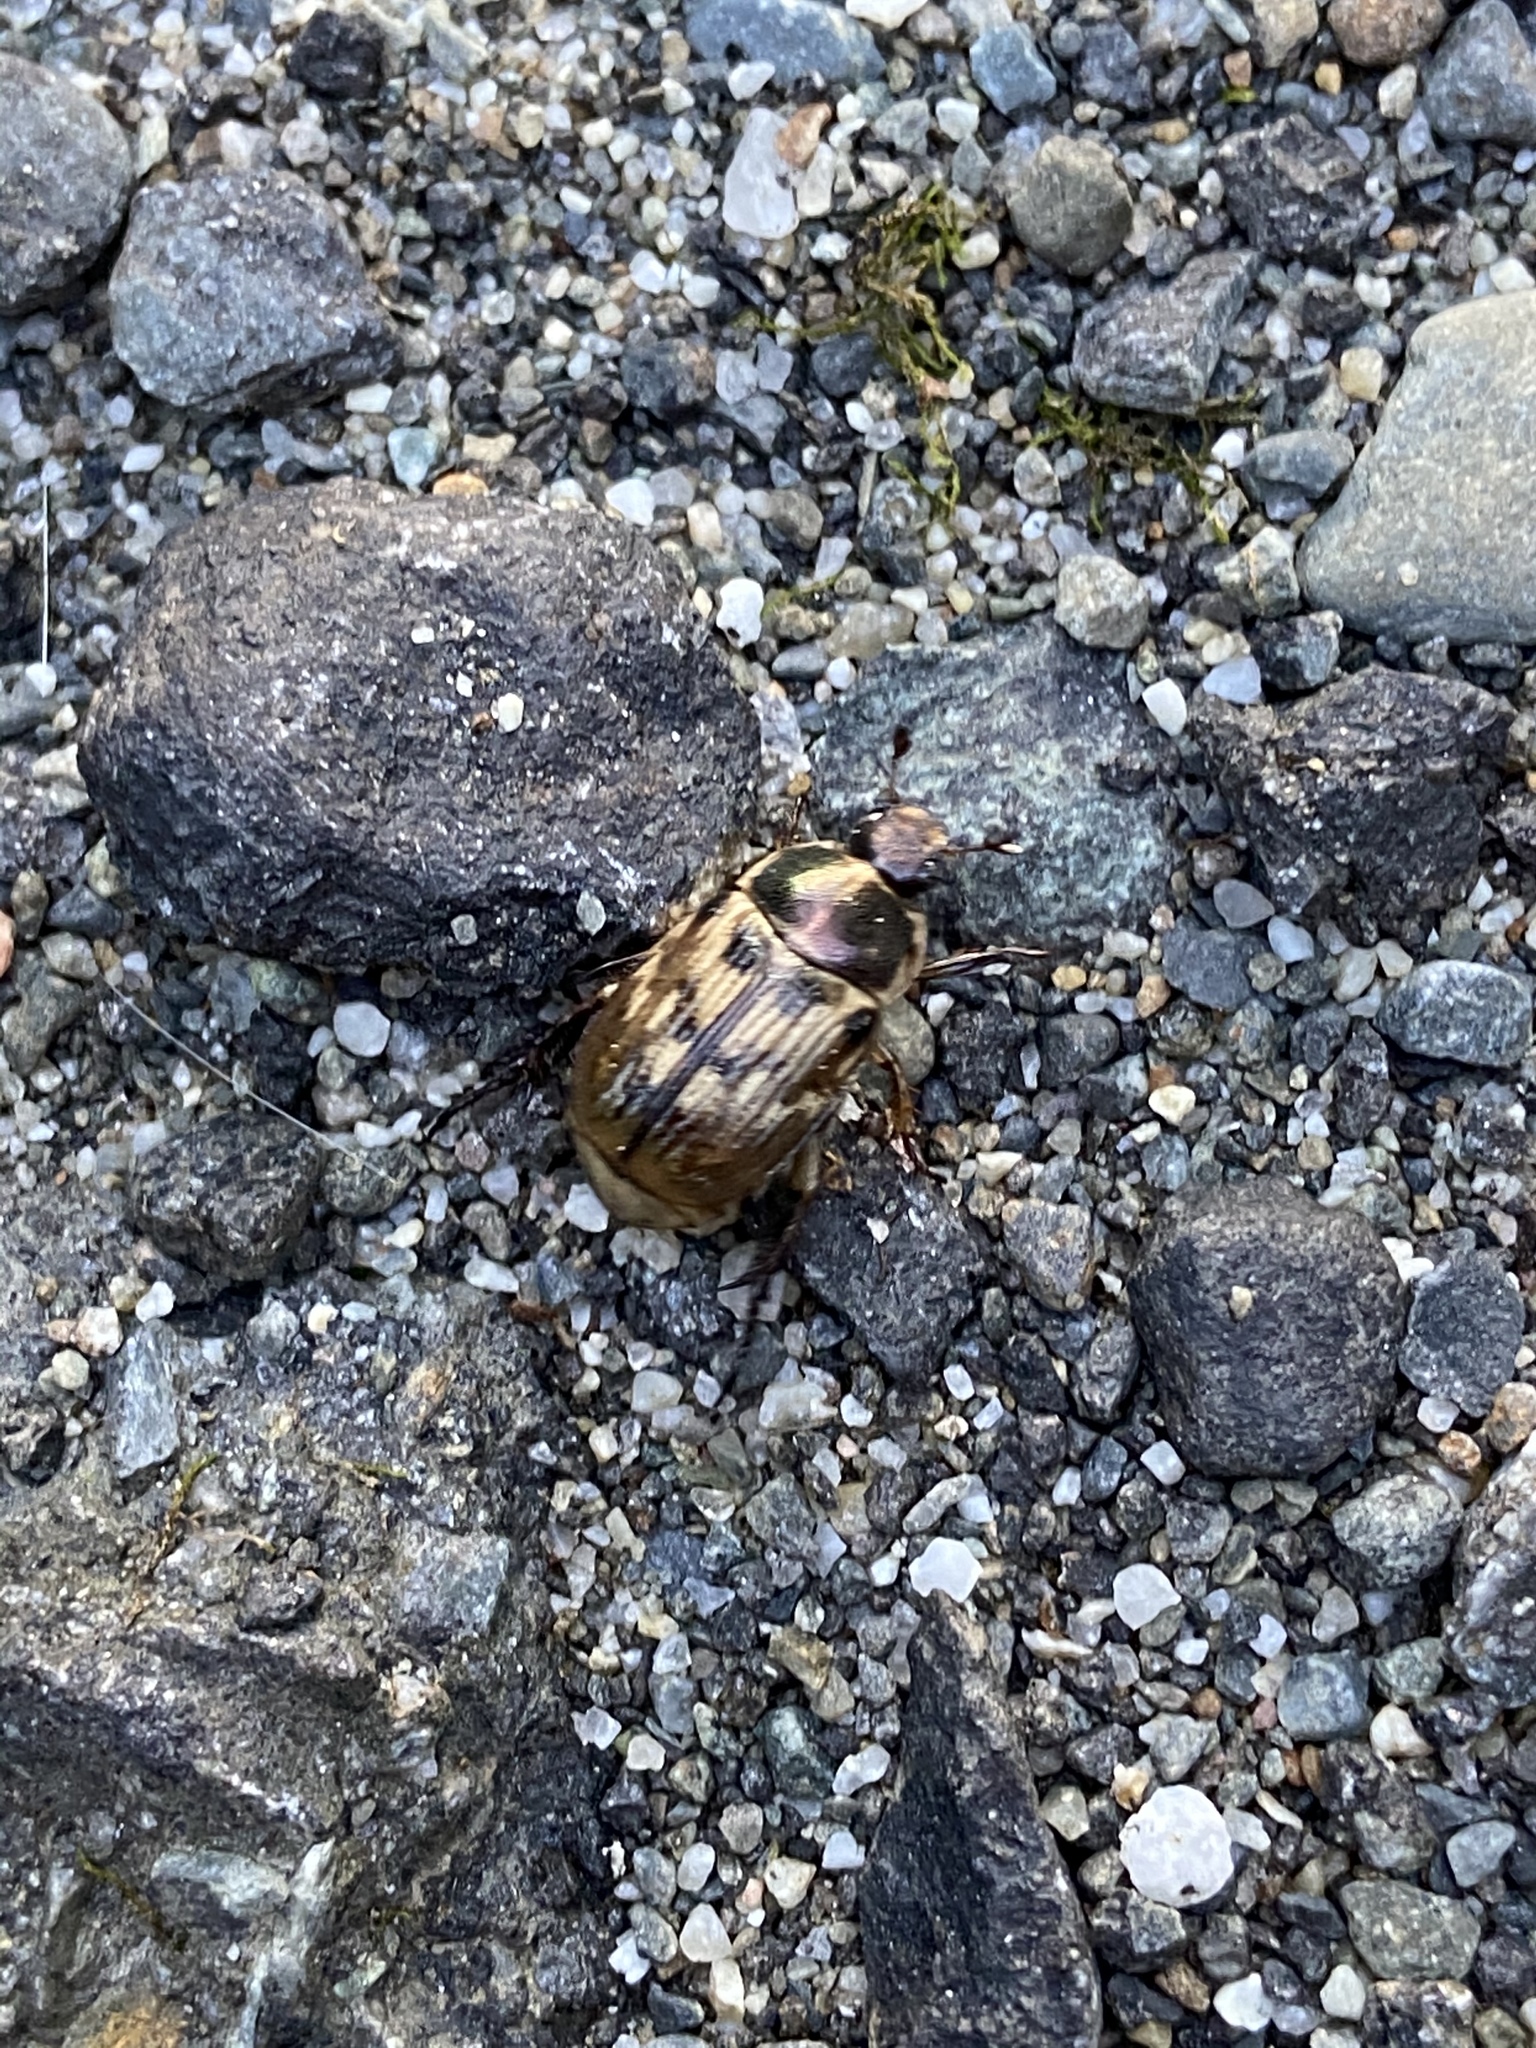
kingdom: Animalia
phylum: Arthropoda
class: Insecta
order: Coleoptera
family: Scarabaeidae
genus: Exomala
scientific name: Exomala orientalis
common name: Oriental beetle
